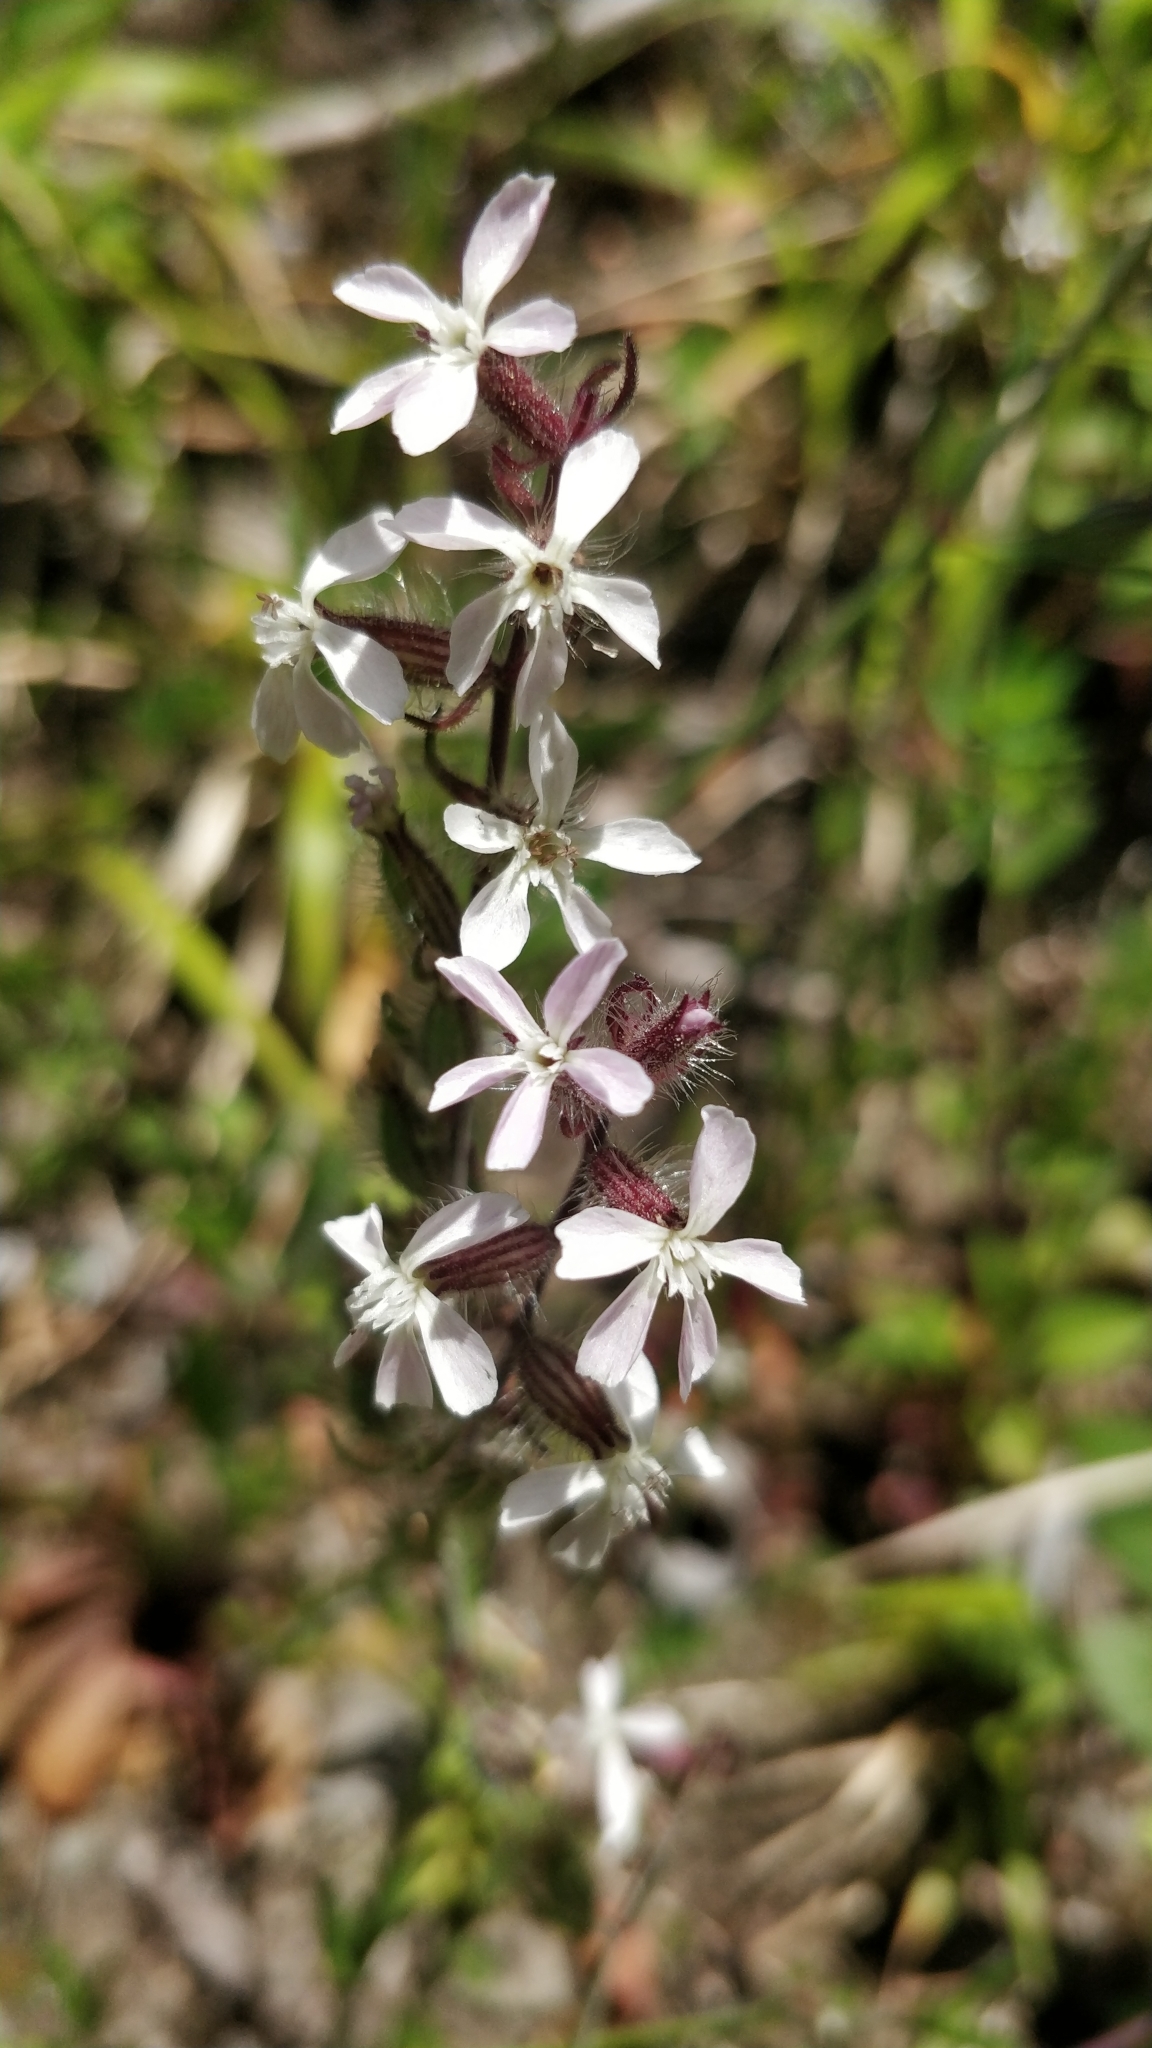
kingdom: Plantae
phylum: Tracheophyta
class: Magnoliopsida
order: Caryophyllales
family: Caryophyllaceae
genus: Silene
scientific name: Silene gallica
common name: Small-flowered catchfly
